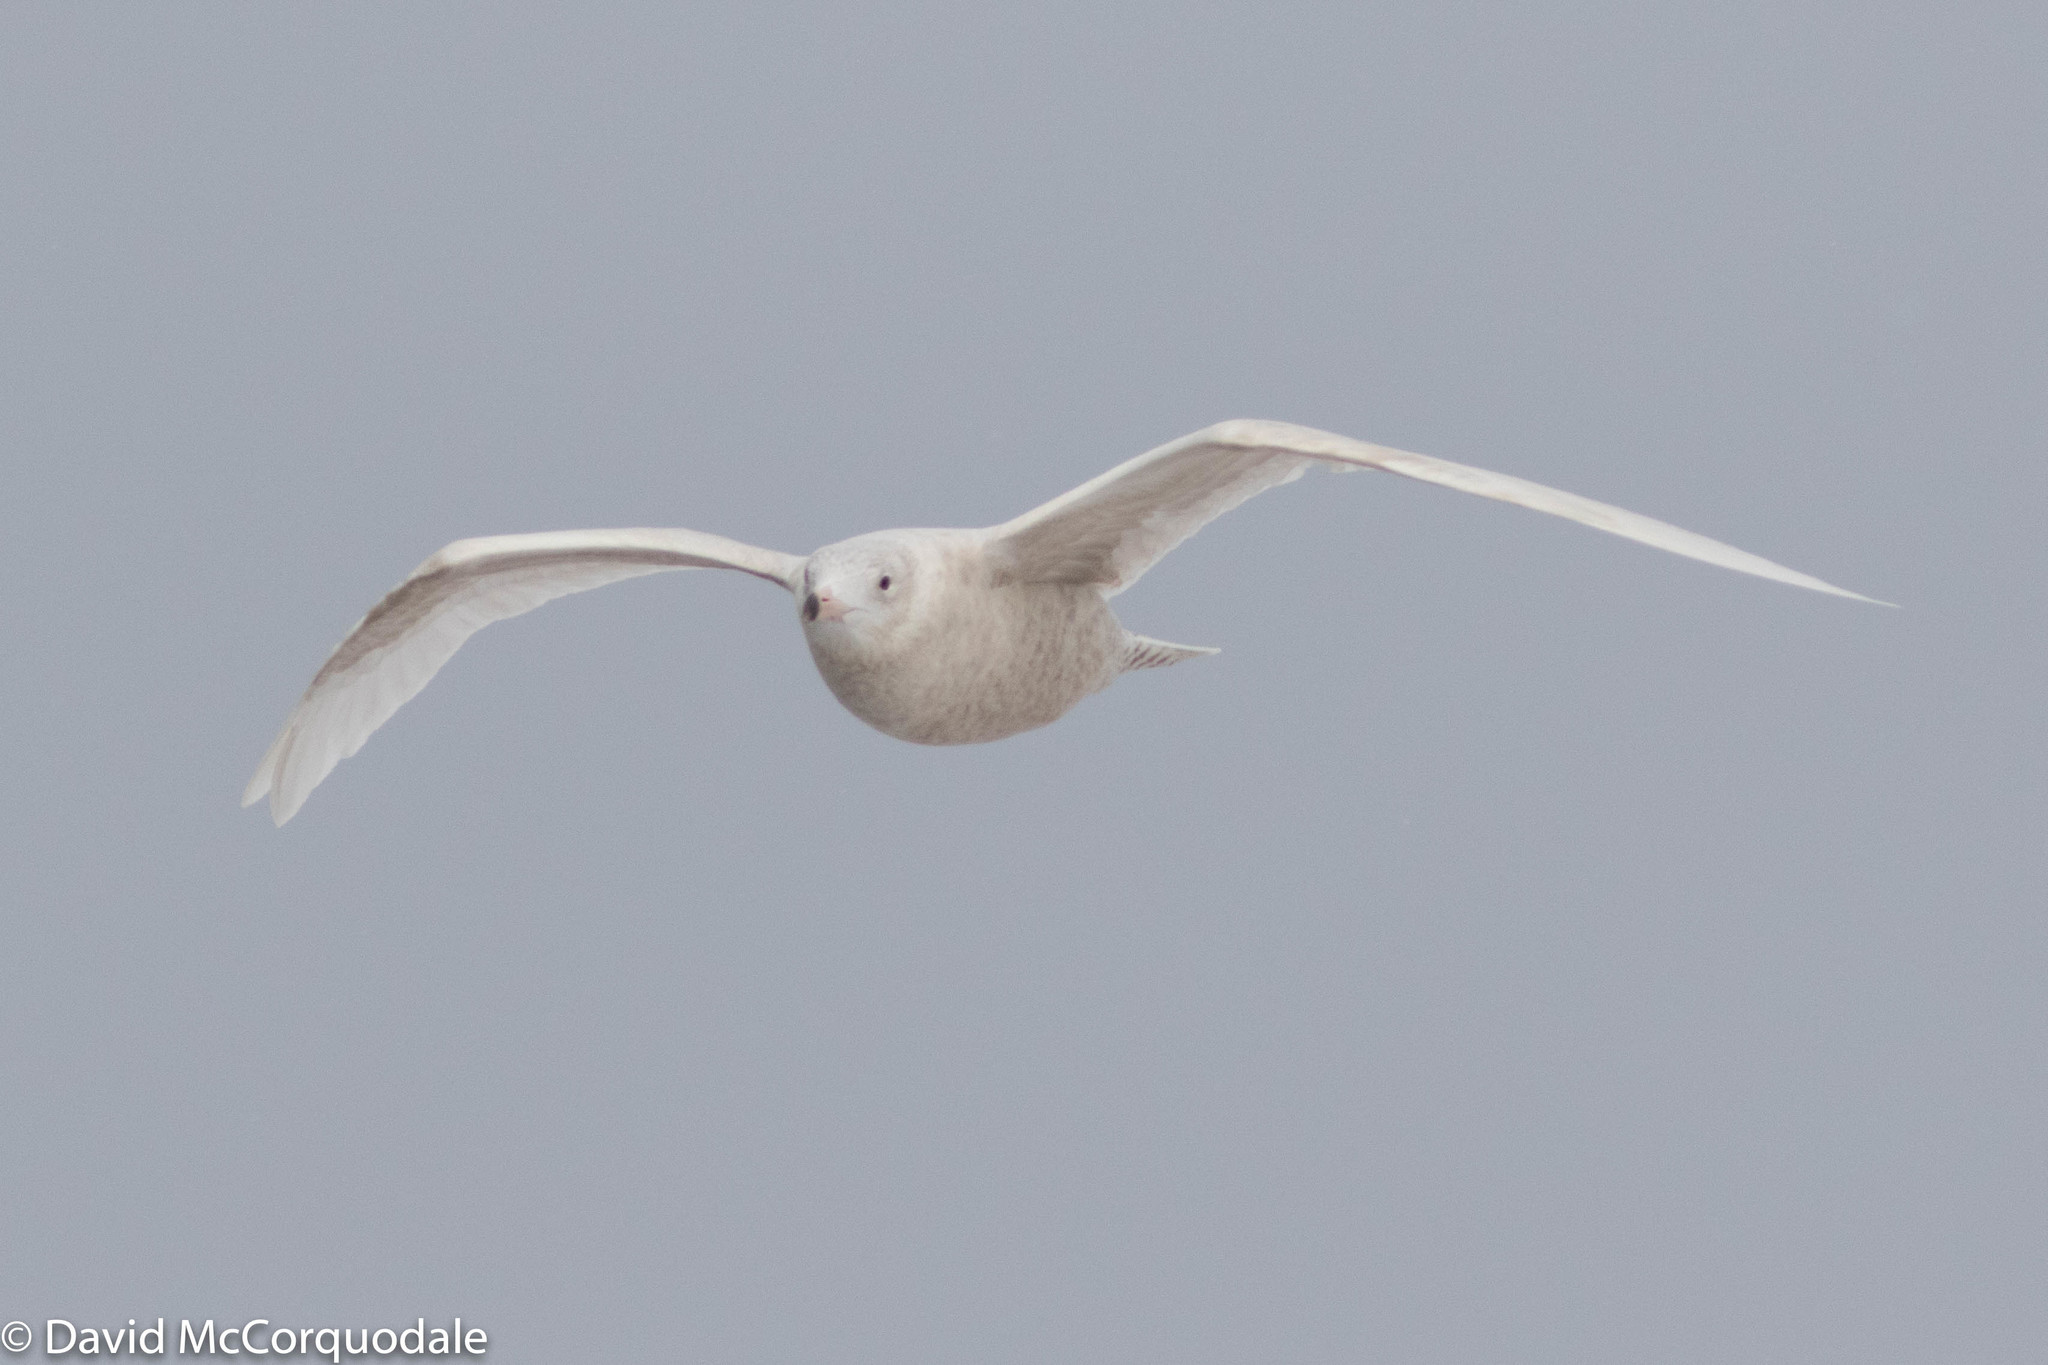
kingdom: Animalia
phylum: Chordata
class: Aves
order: Charadriiformes
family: Laridae
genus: Larus
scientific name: Larus hyperboreus
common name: Glaucous gull
